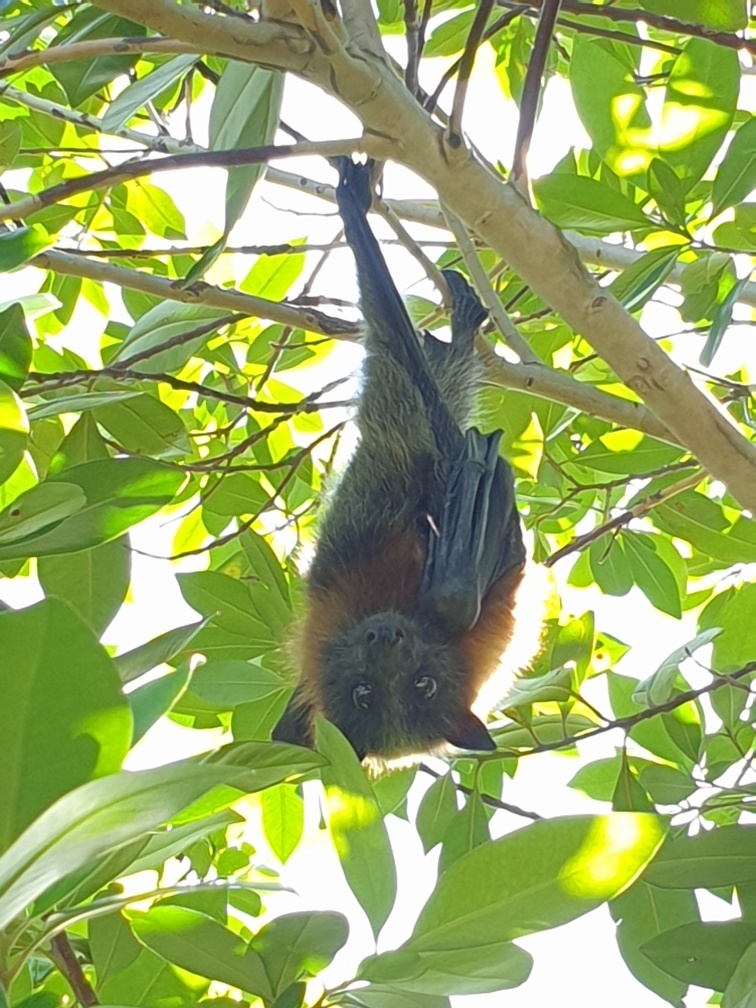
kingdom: Animalia
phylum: Chordata
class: Mammalia
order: Chiroptera
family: Pteropodidae
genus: Pteropus
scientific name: Pteropus poliocephalus
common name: Gray-headed flying fox
